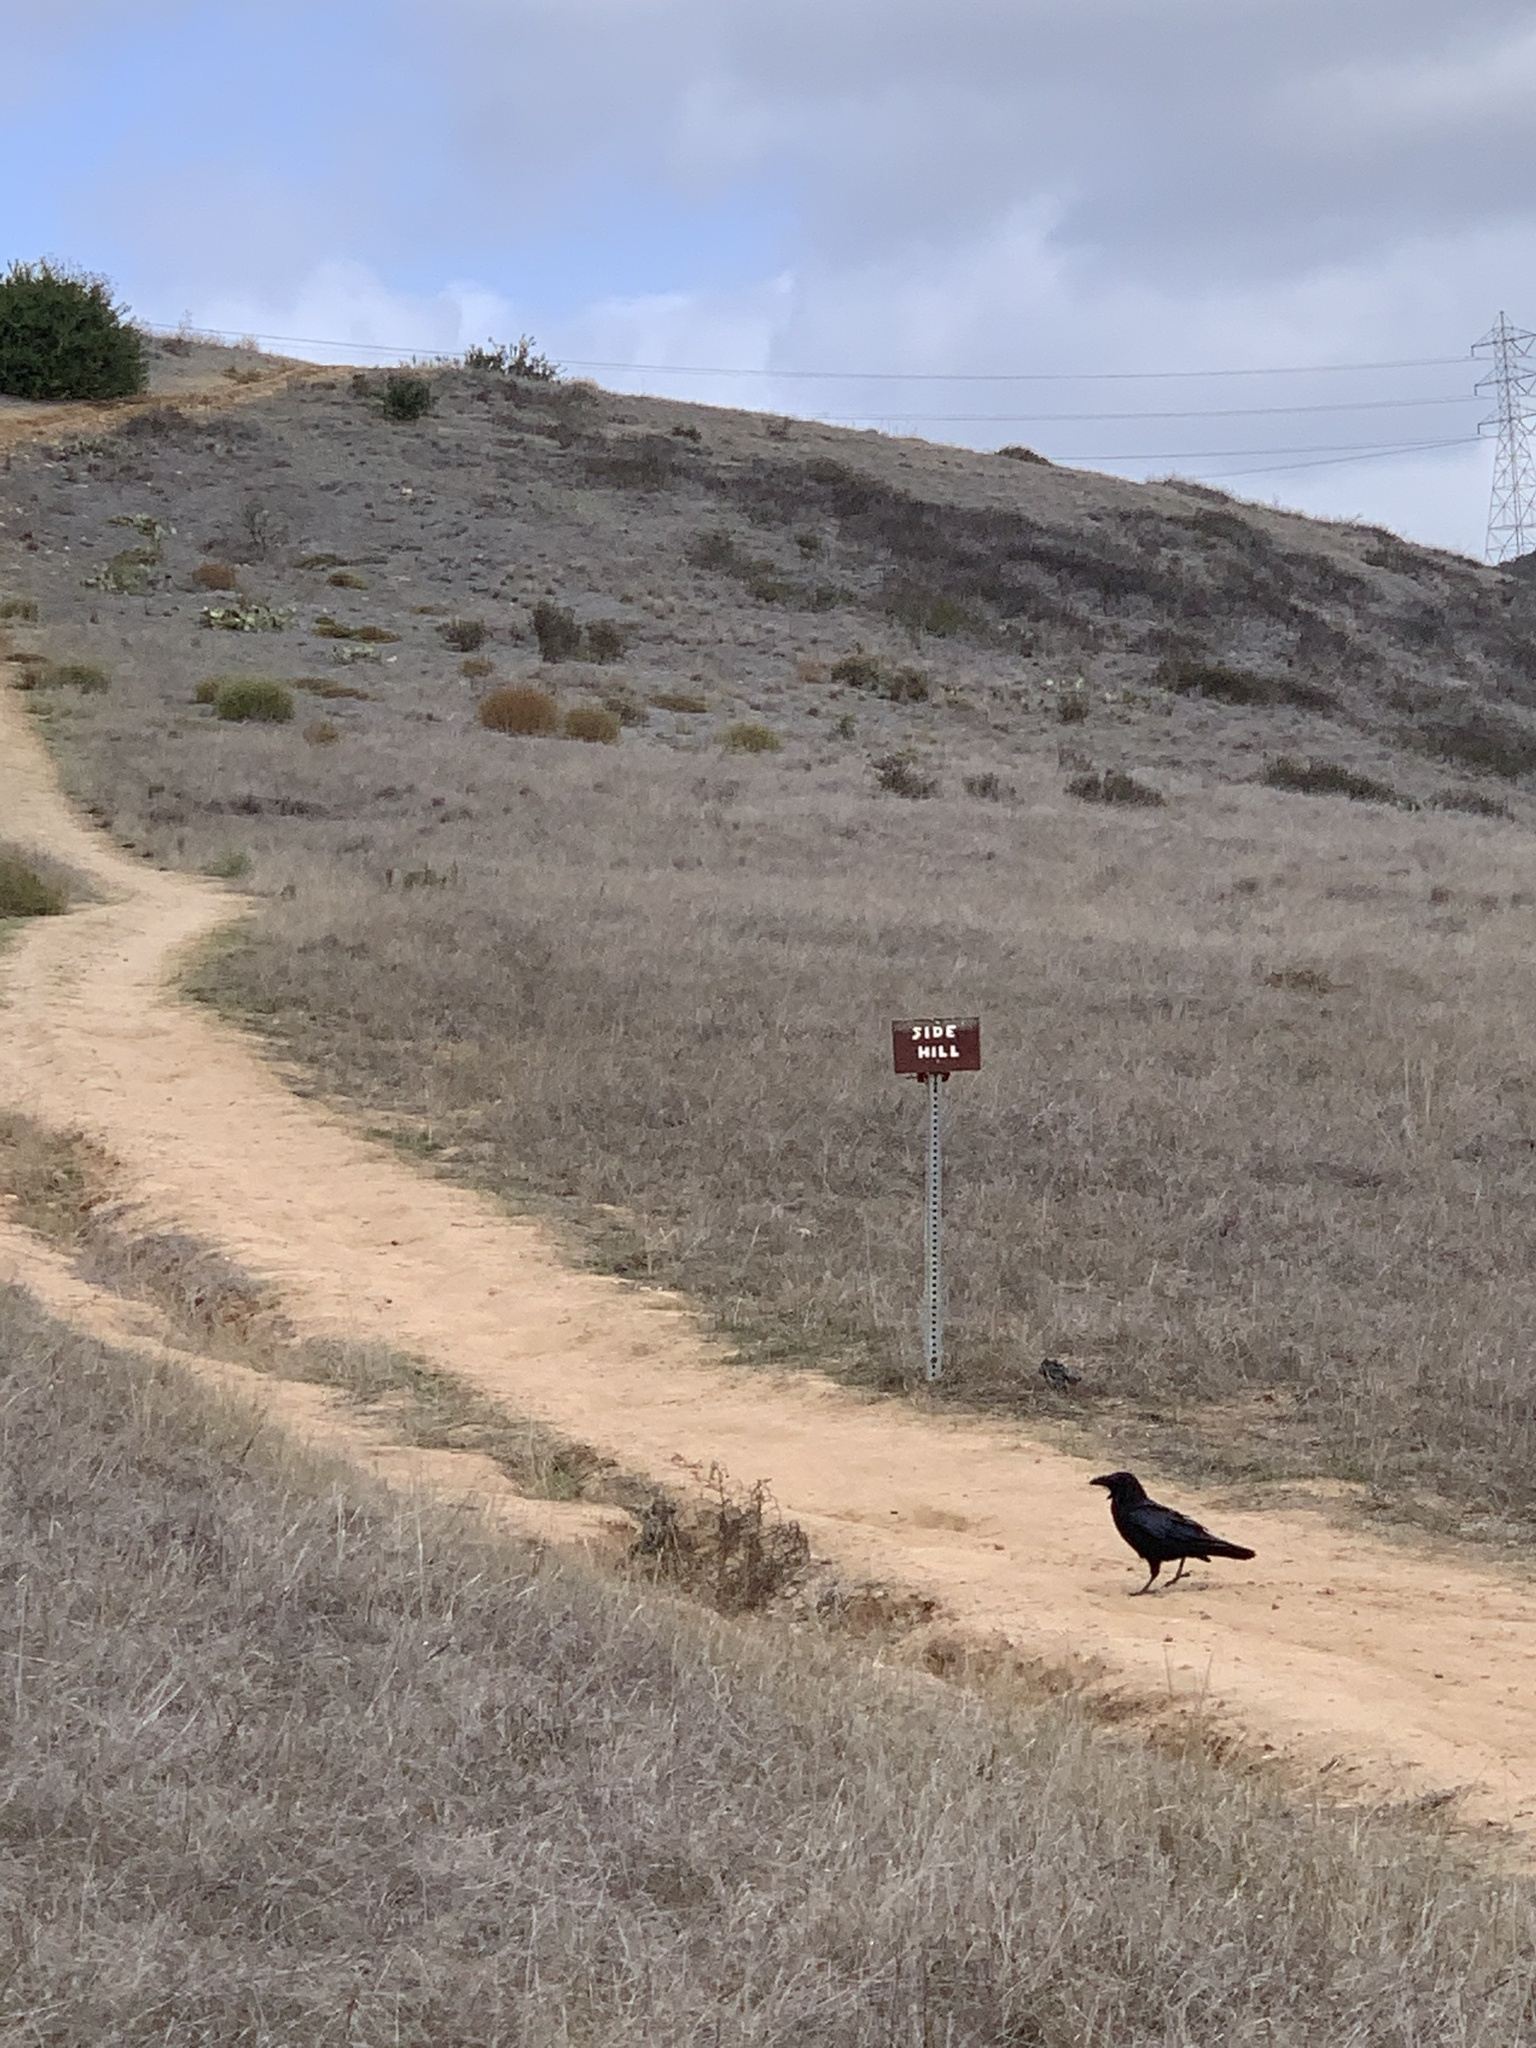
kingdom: Animalia
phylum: Chordata
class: Aves
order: Passeriformes
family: Corvidae
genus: Corvus
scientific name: Corvus corax
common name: Common raven
